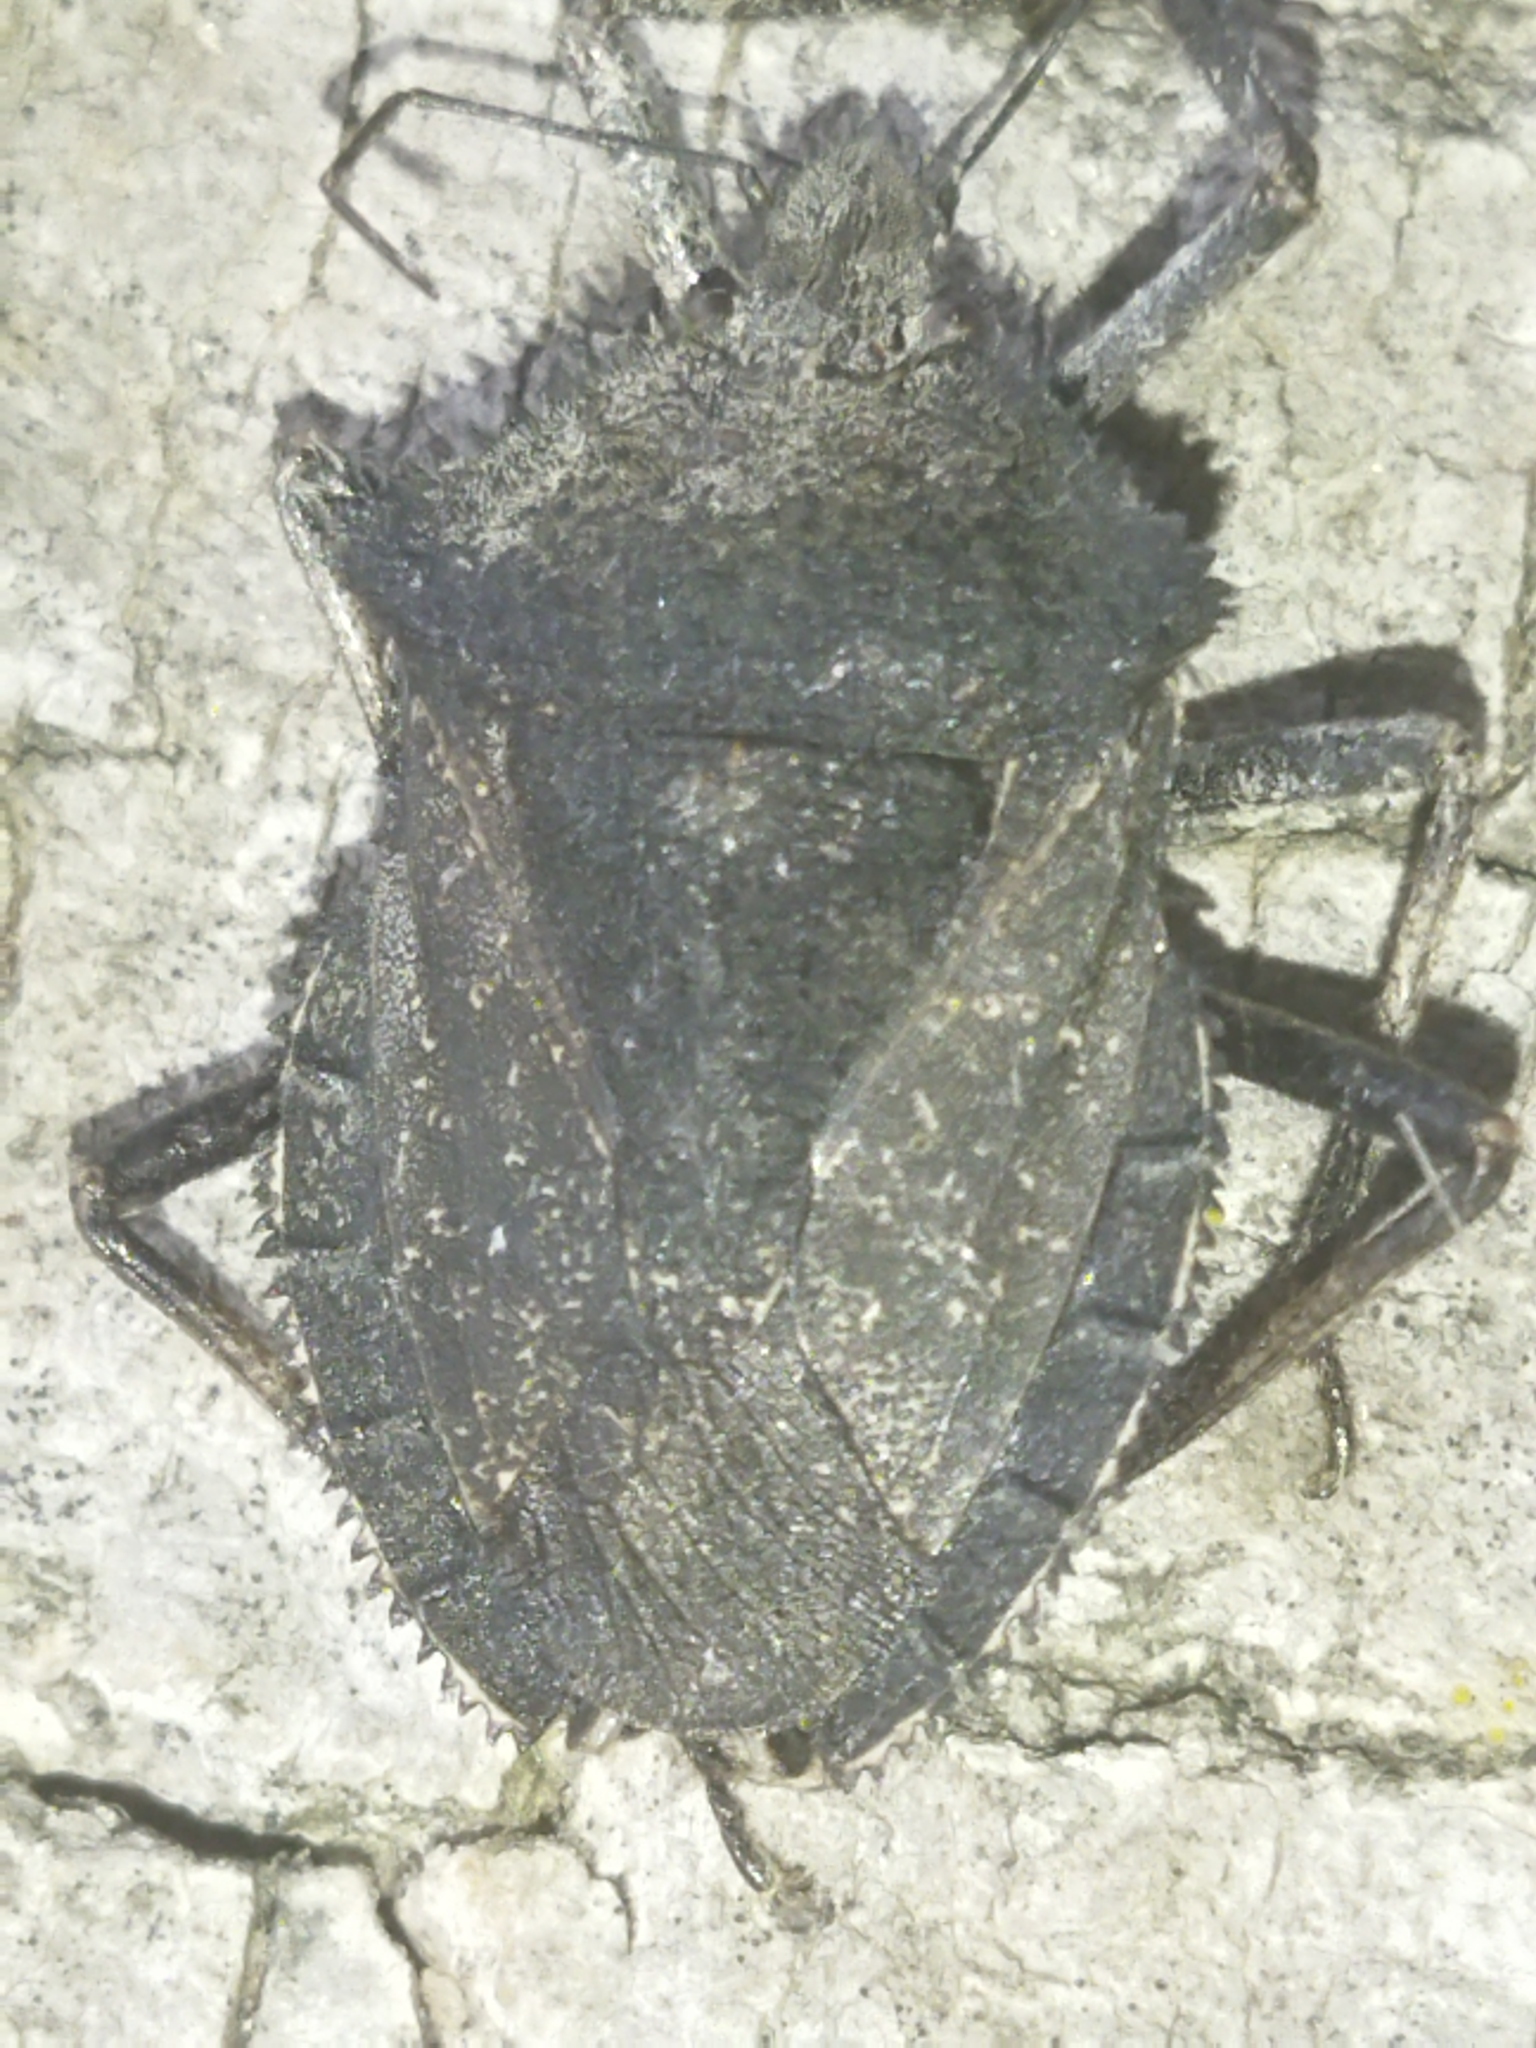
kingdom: Animalia
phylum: Arthropoda
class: Insecta
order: Hemiptera
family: Pentatomidae
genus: Mustha
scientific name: Mustha spinosula
